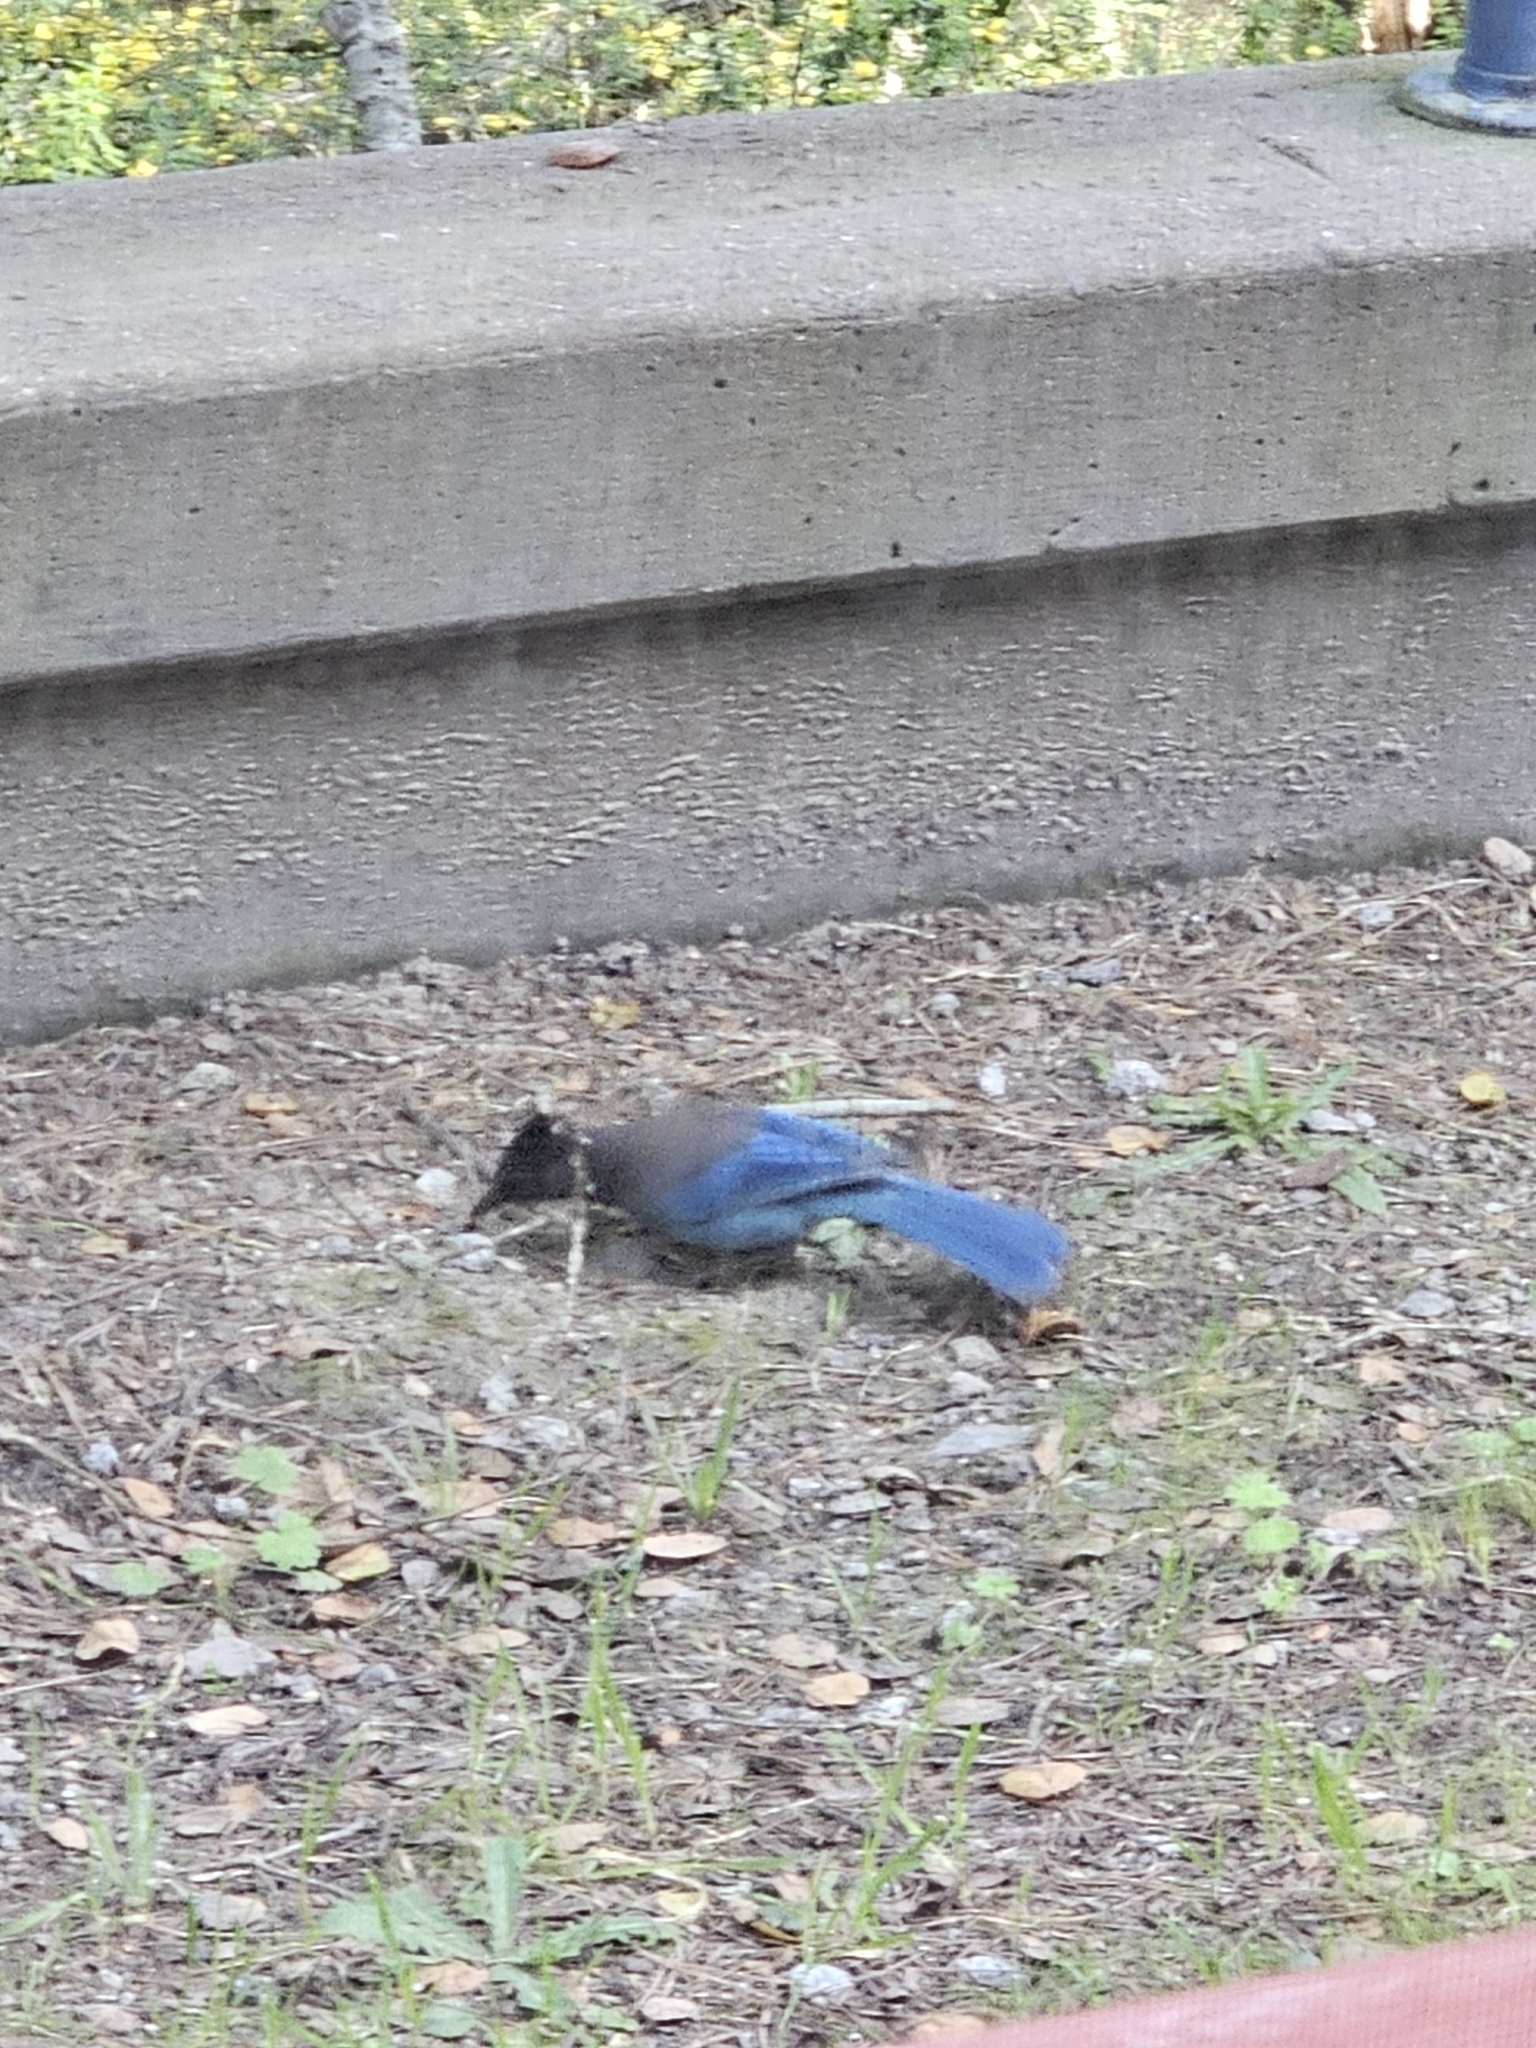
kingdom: Animalia
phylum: Chordata
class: Aves
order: Passeriformes
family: Corvidae
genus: Cyanocitta
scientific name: Cyanocitta stelleri
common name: Steller's jay
